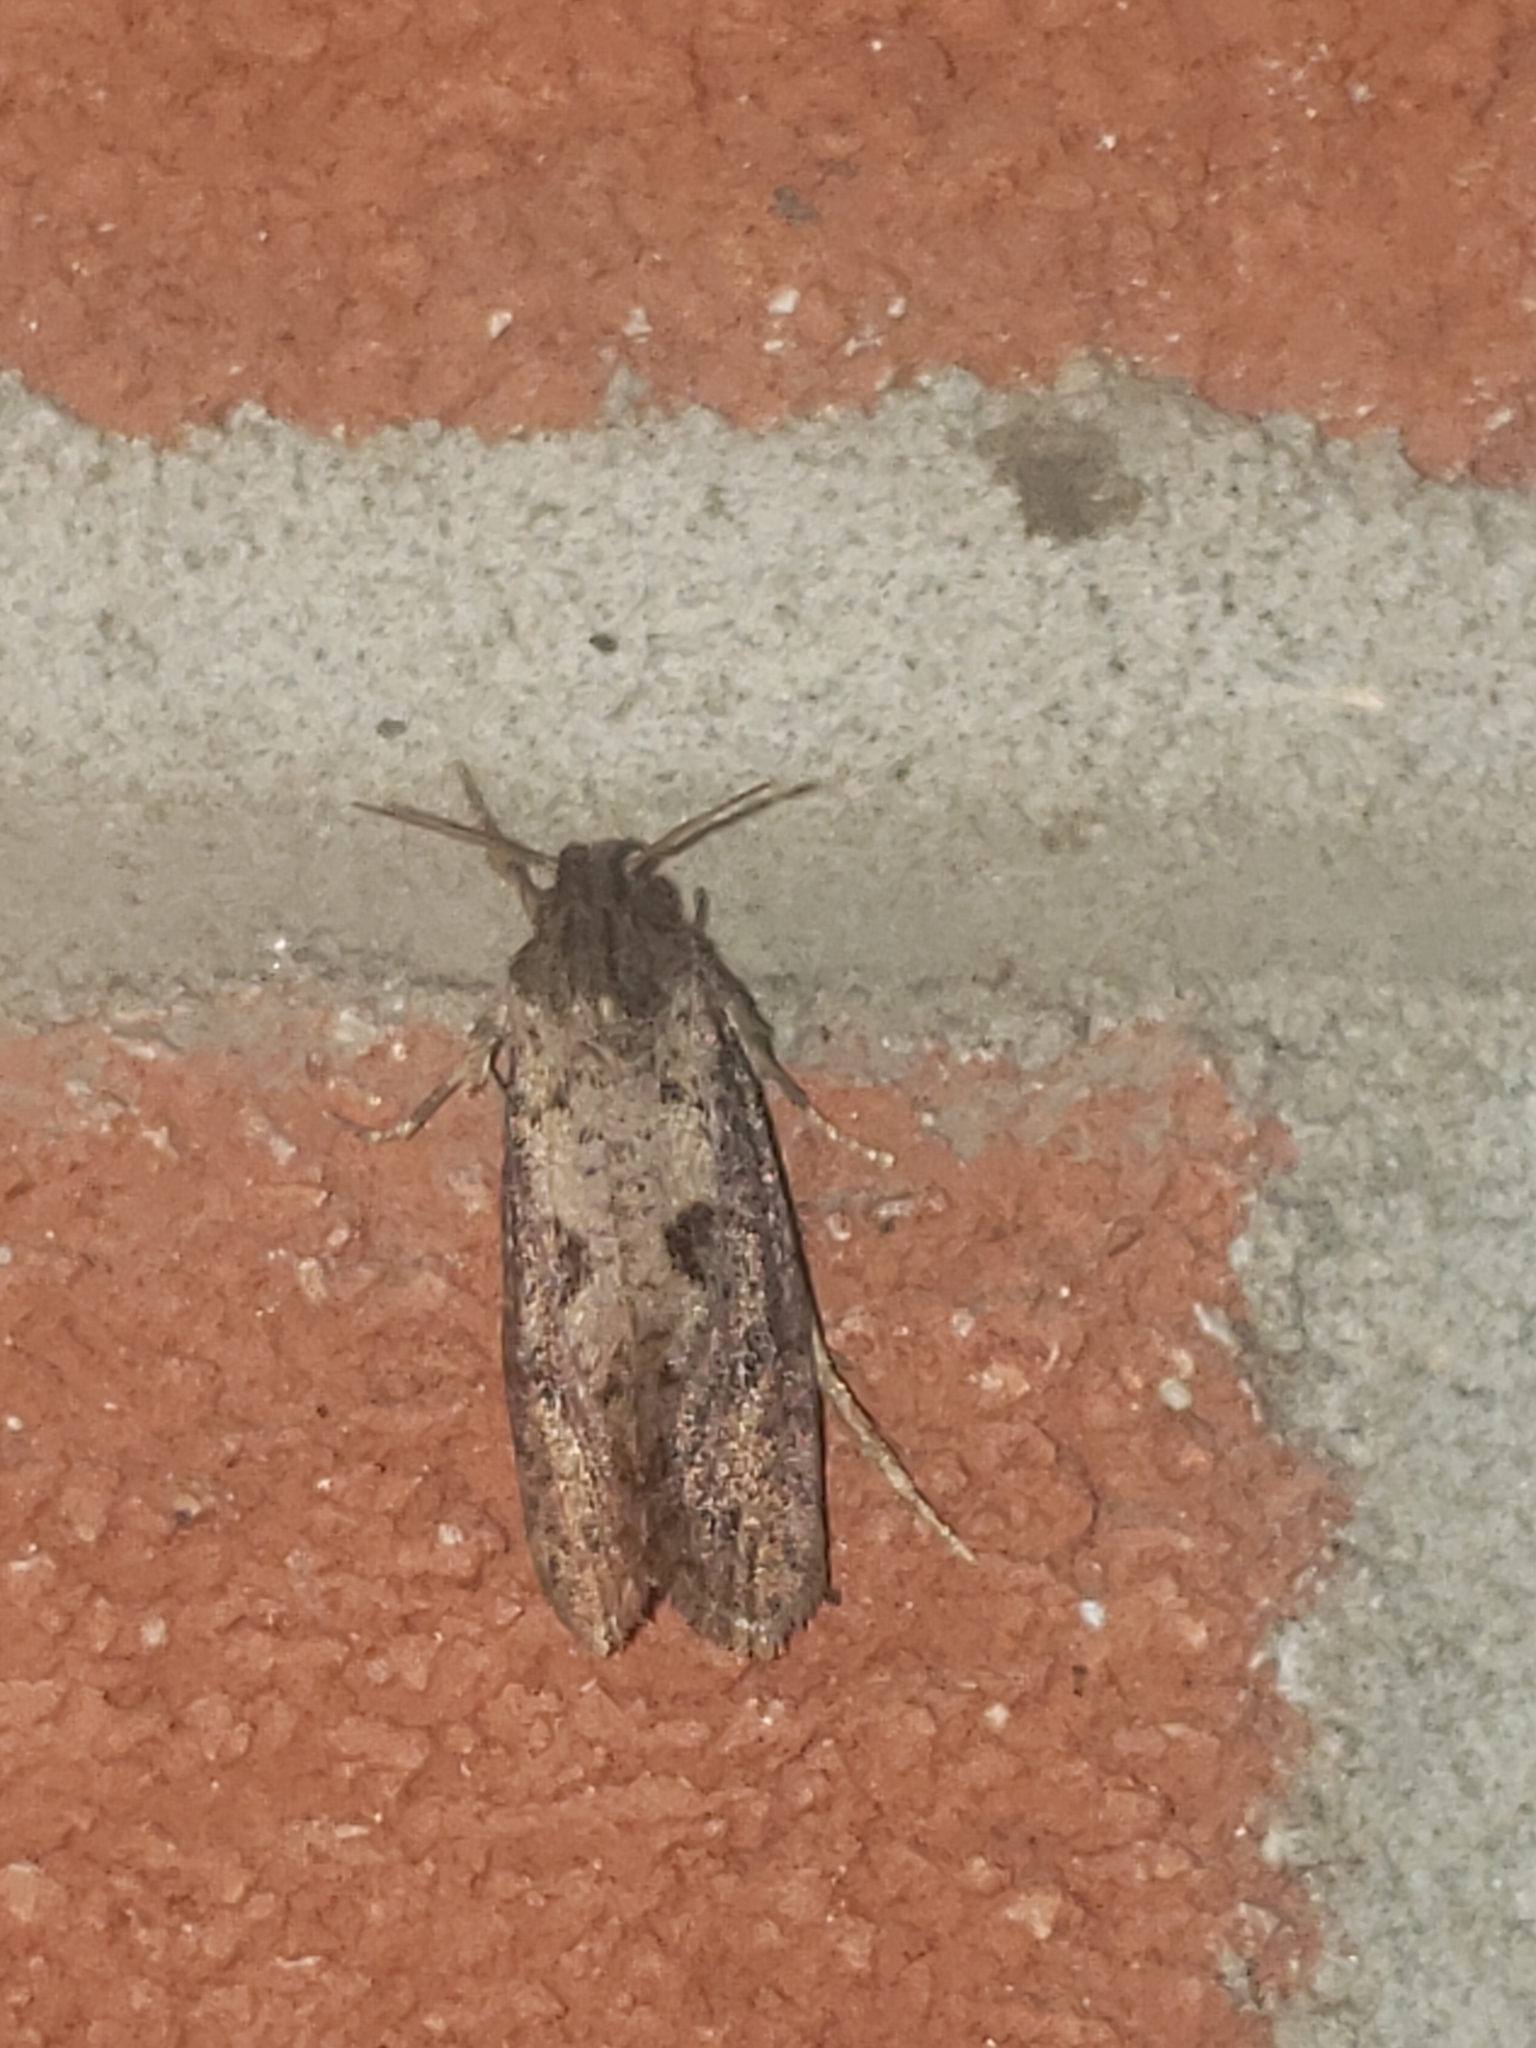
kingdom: Animalia
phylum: Arthropoda
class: Insecta
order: Lepidoptera
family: Tineidae
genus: Acrolophus
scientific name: Acrolophus popeanella
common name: Clemens' grass tubeworm moth
